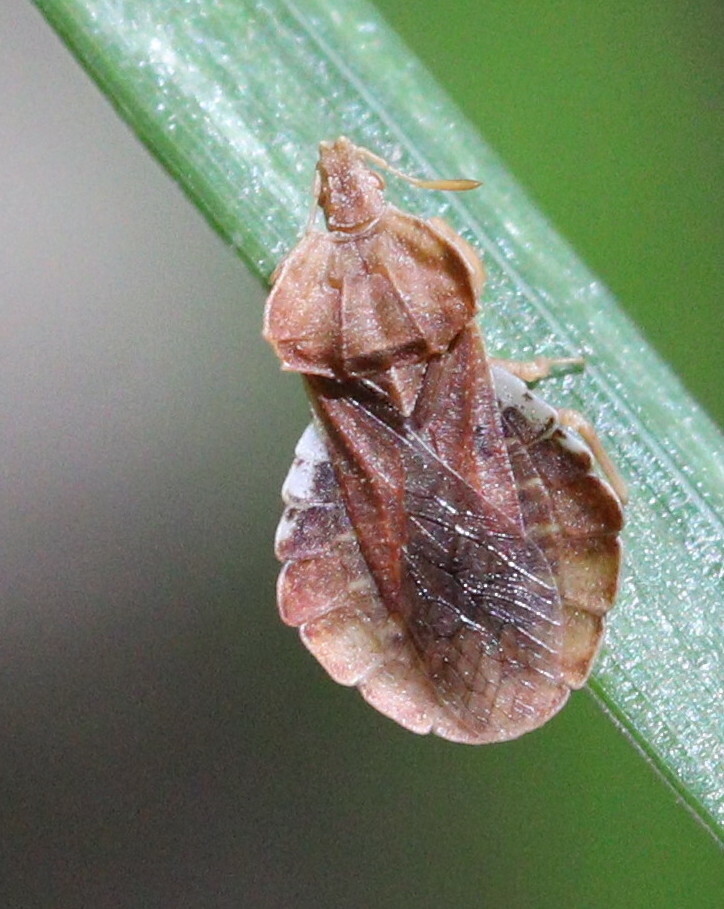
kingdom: Animalia
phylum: Arthropoda
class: Insecta
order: Hemiptera
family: Reduviidae
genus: Phymata
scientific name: Phymata crassipes
